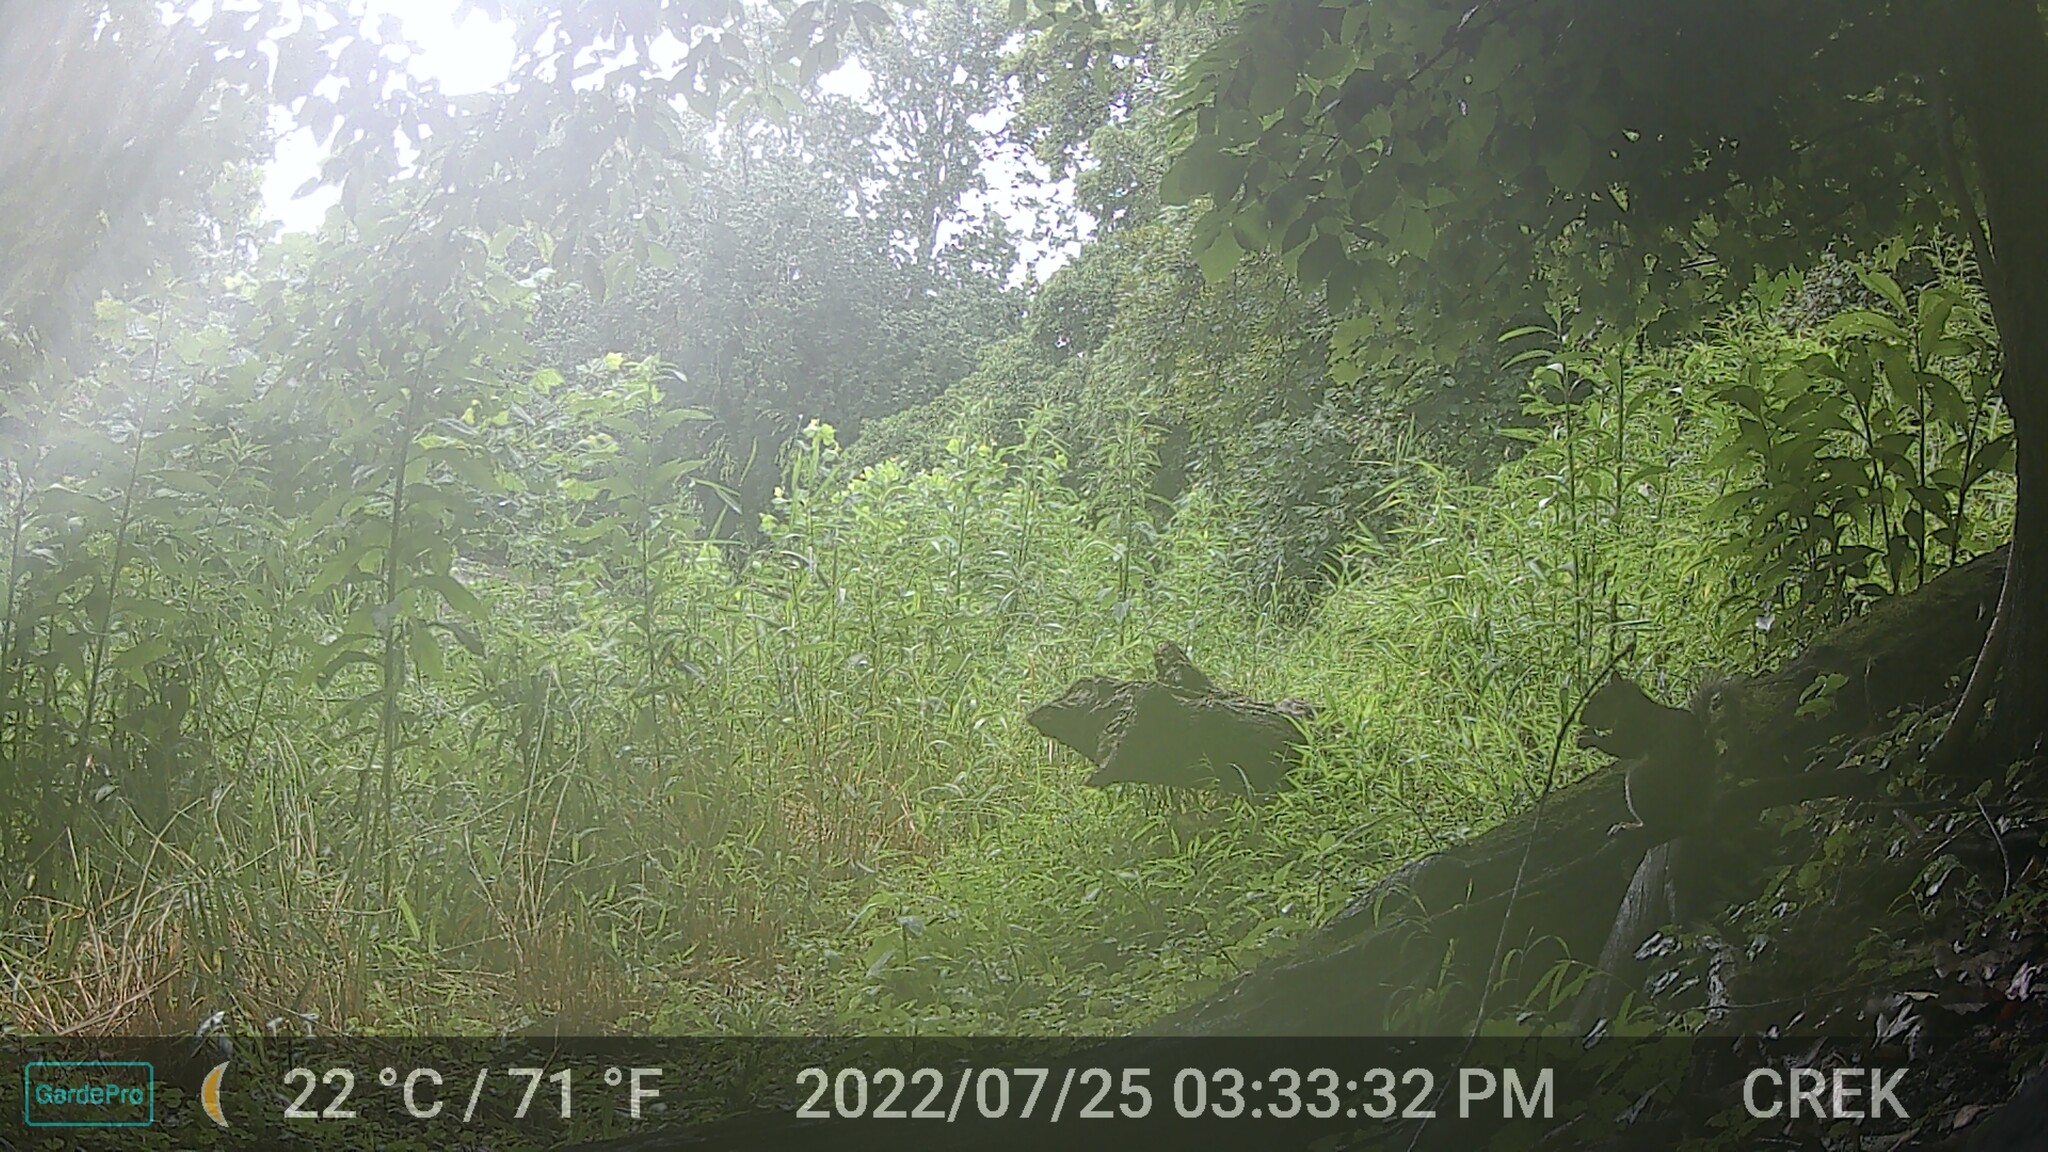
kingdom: Animalia
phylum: Chordata
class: Mammalia
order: Rodentia
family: Sciuridae
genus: Sciurus
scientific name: Sciurus carolinensis
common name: Eastern gray squirrel
